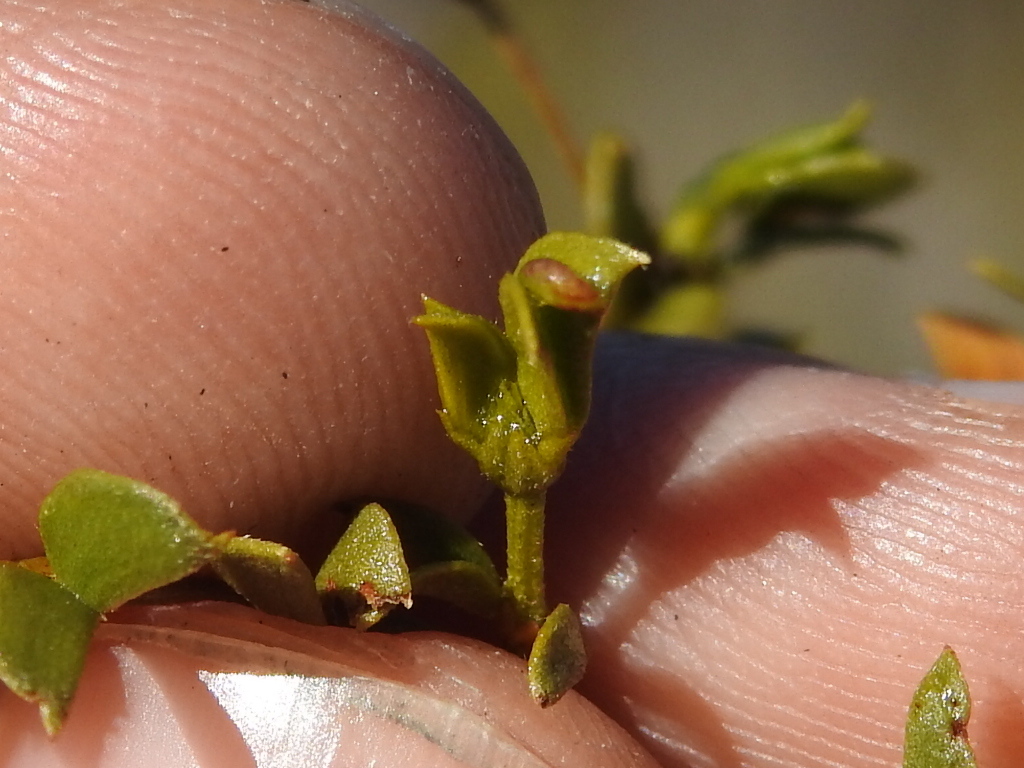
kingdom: Animalia
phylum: Arthropoda
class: Insecta
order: Diptera
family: Cecidomyiidae
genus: Asphondylia
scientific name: Asphondylia fabalis
